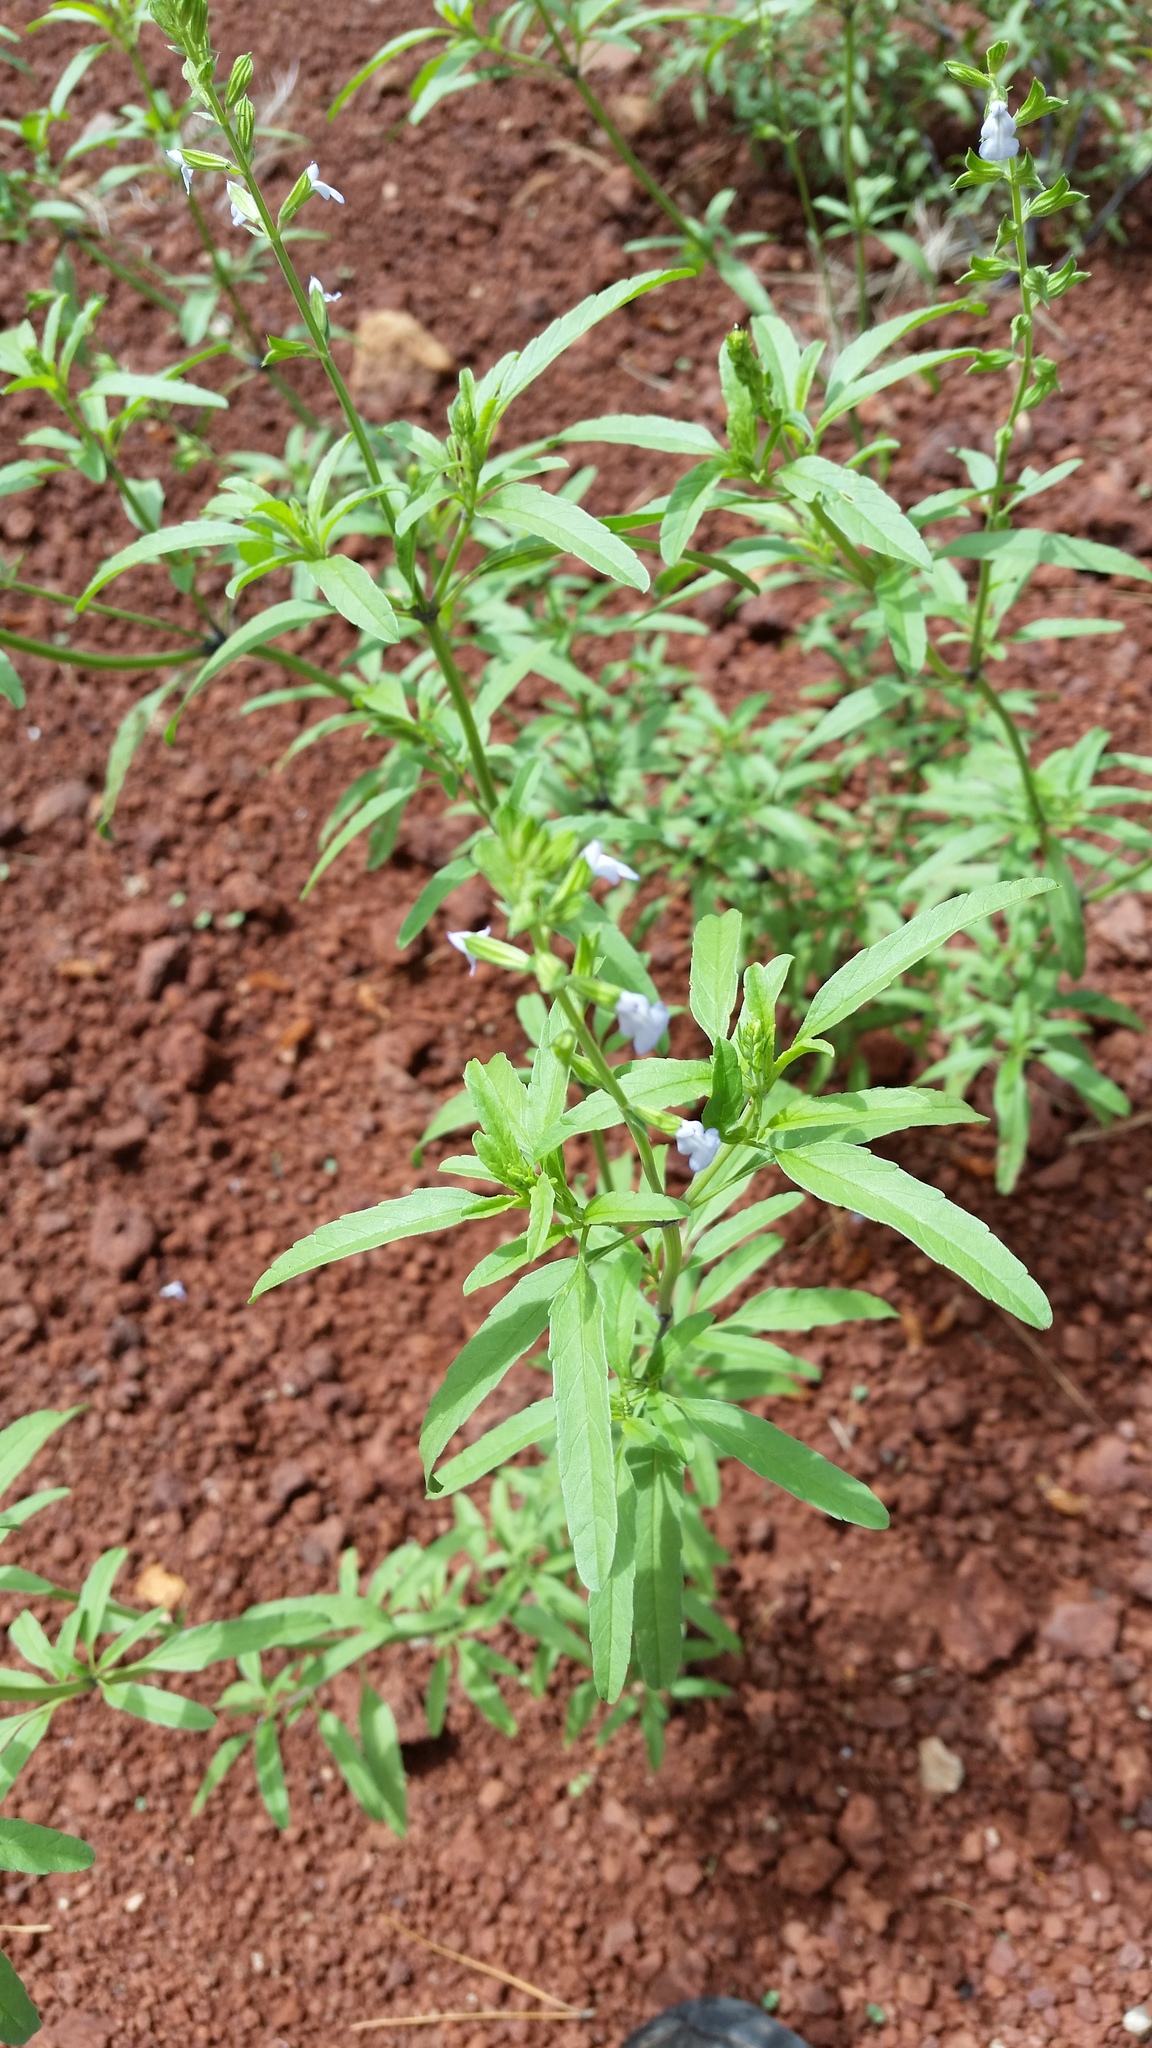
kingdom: Plantae
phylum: Tracheophyta
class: Magnoliopsida
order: Lamiales
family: Lamiaceae
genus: Salvia
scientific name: Salvia reflexa
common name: Mintweed
